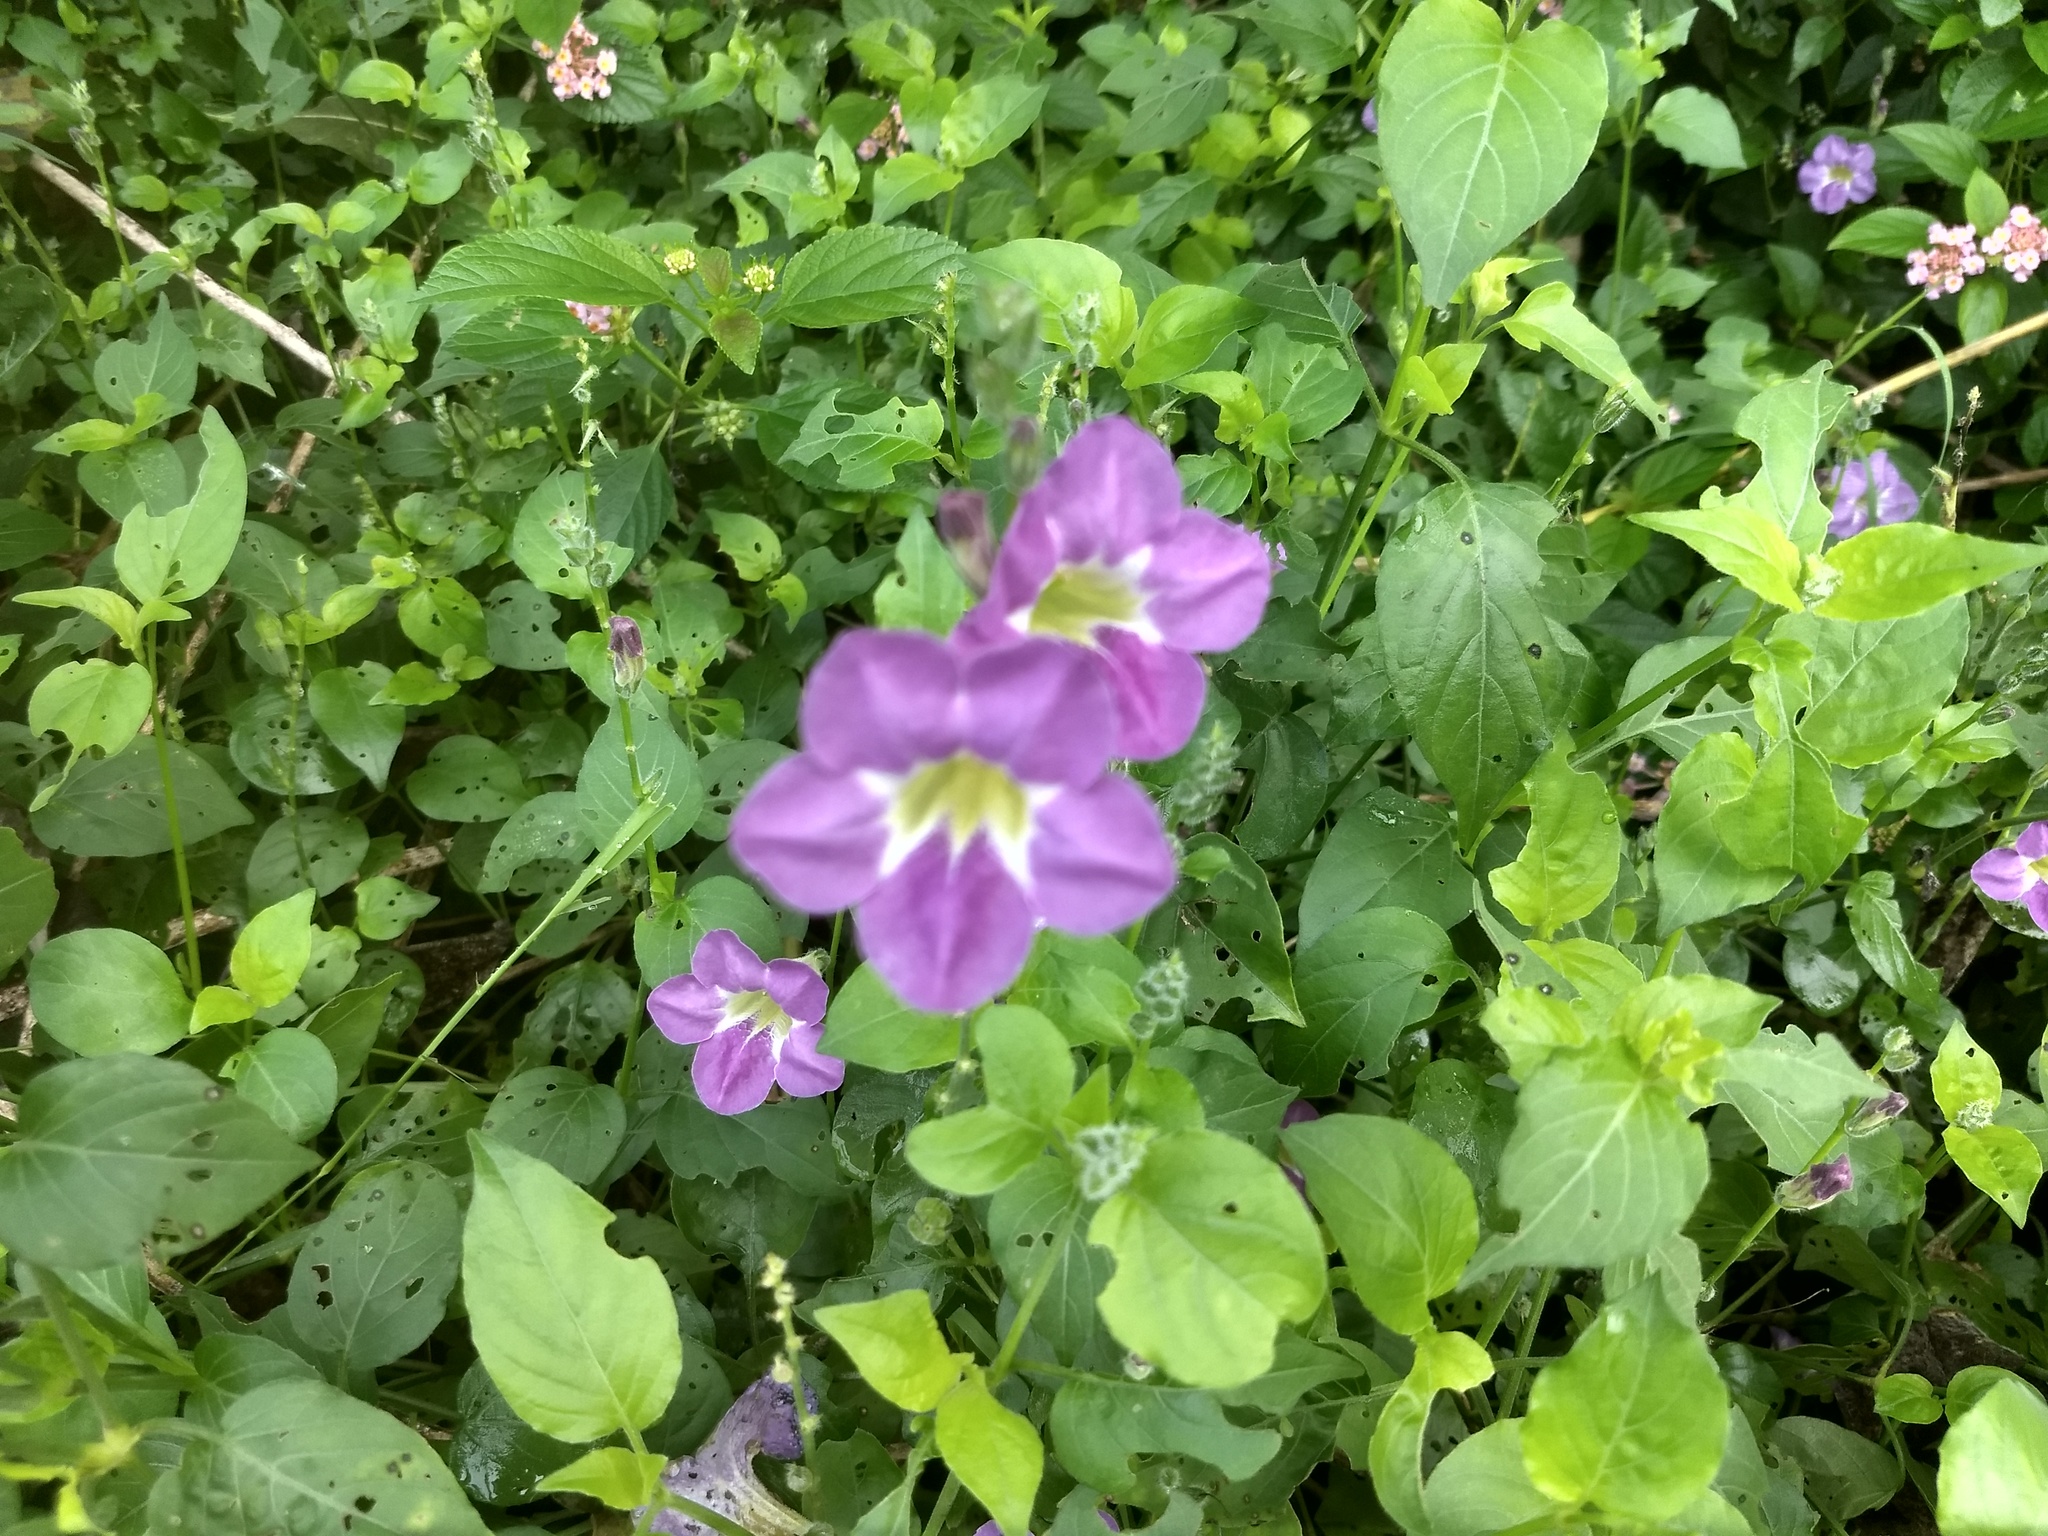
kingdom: Plantae
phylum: Tracheophyta
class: Magnoliopsida
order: Lamiales
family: Acanthaceae
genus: Asystasia
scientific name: Asystasia gangetica
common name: Chinese violet
